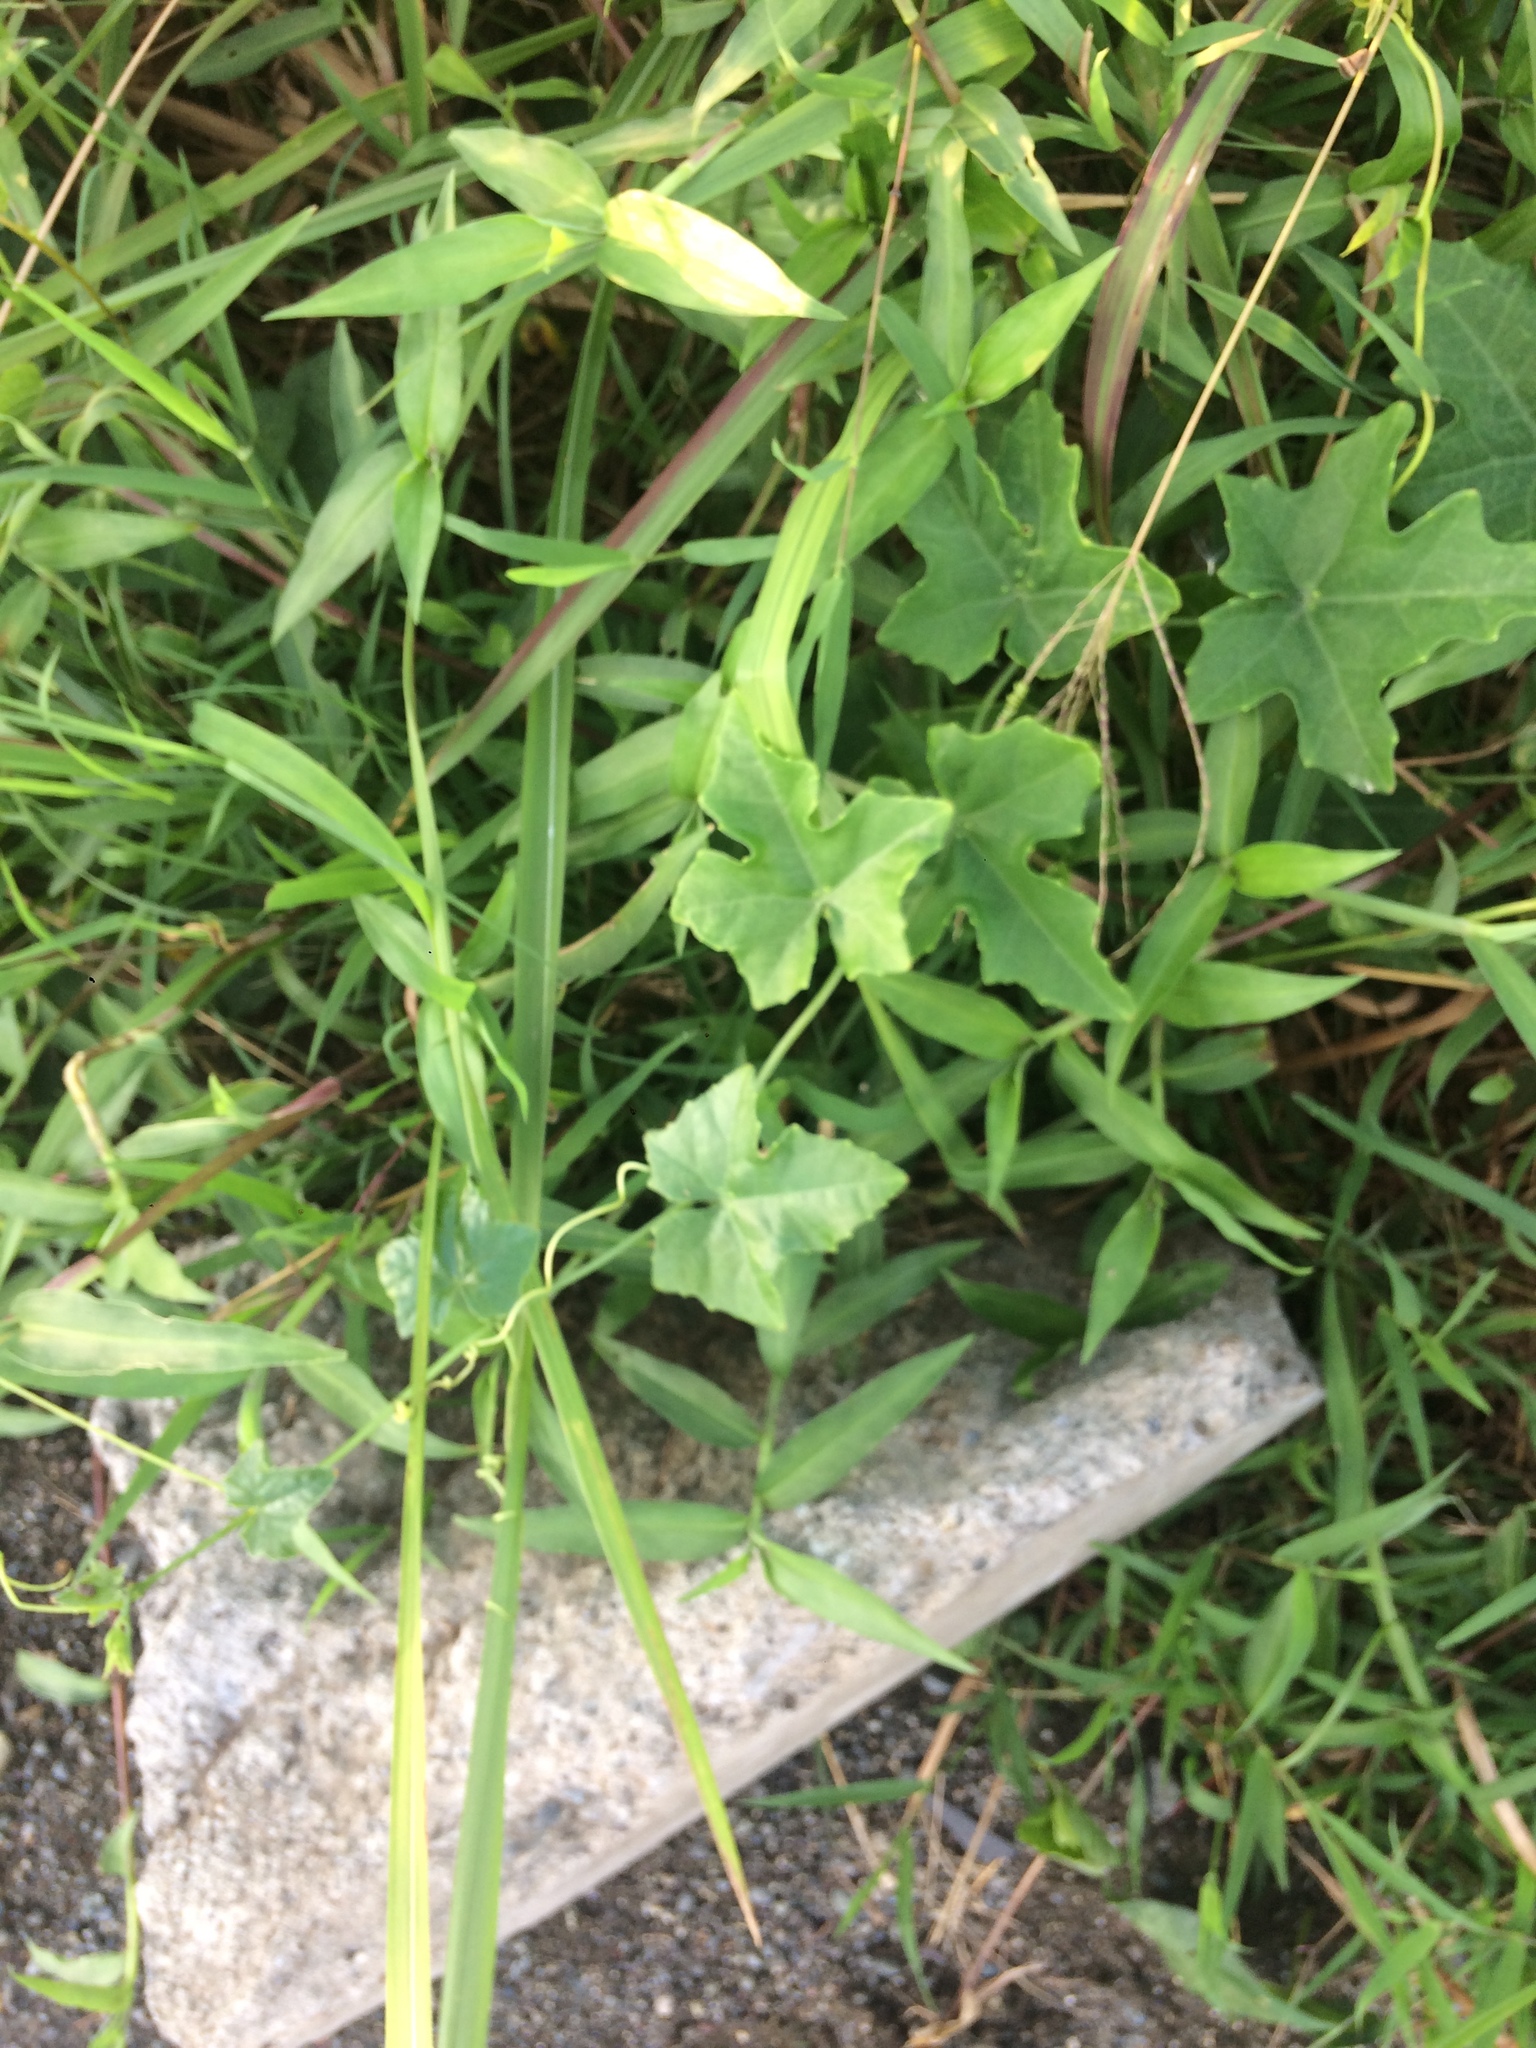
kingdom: Plantae
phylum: Tracheophyta
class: Magnoliopsida
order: Cucurbitales
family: Cucurbitaceae
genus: Coccinia
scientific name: Coccinia grandis
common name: Ivy gourd
